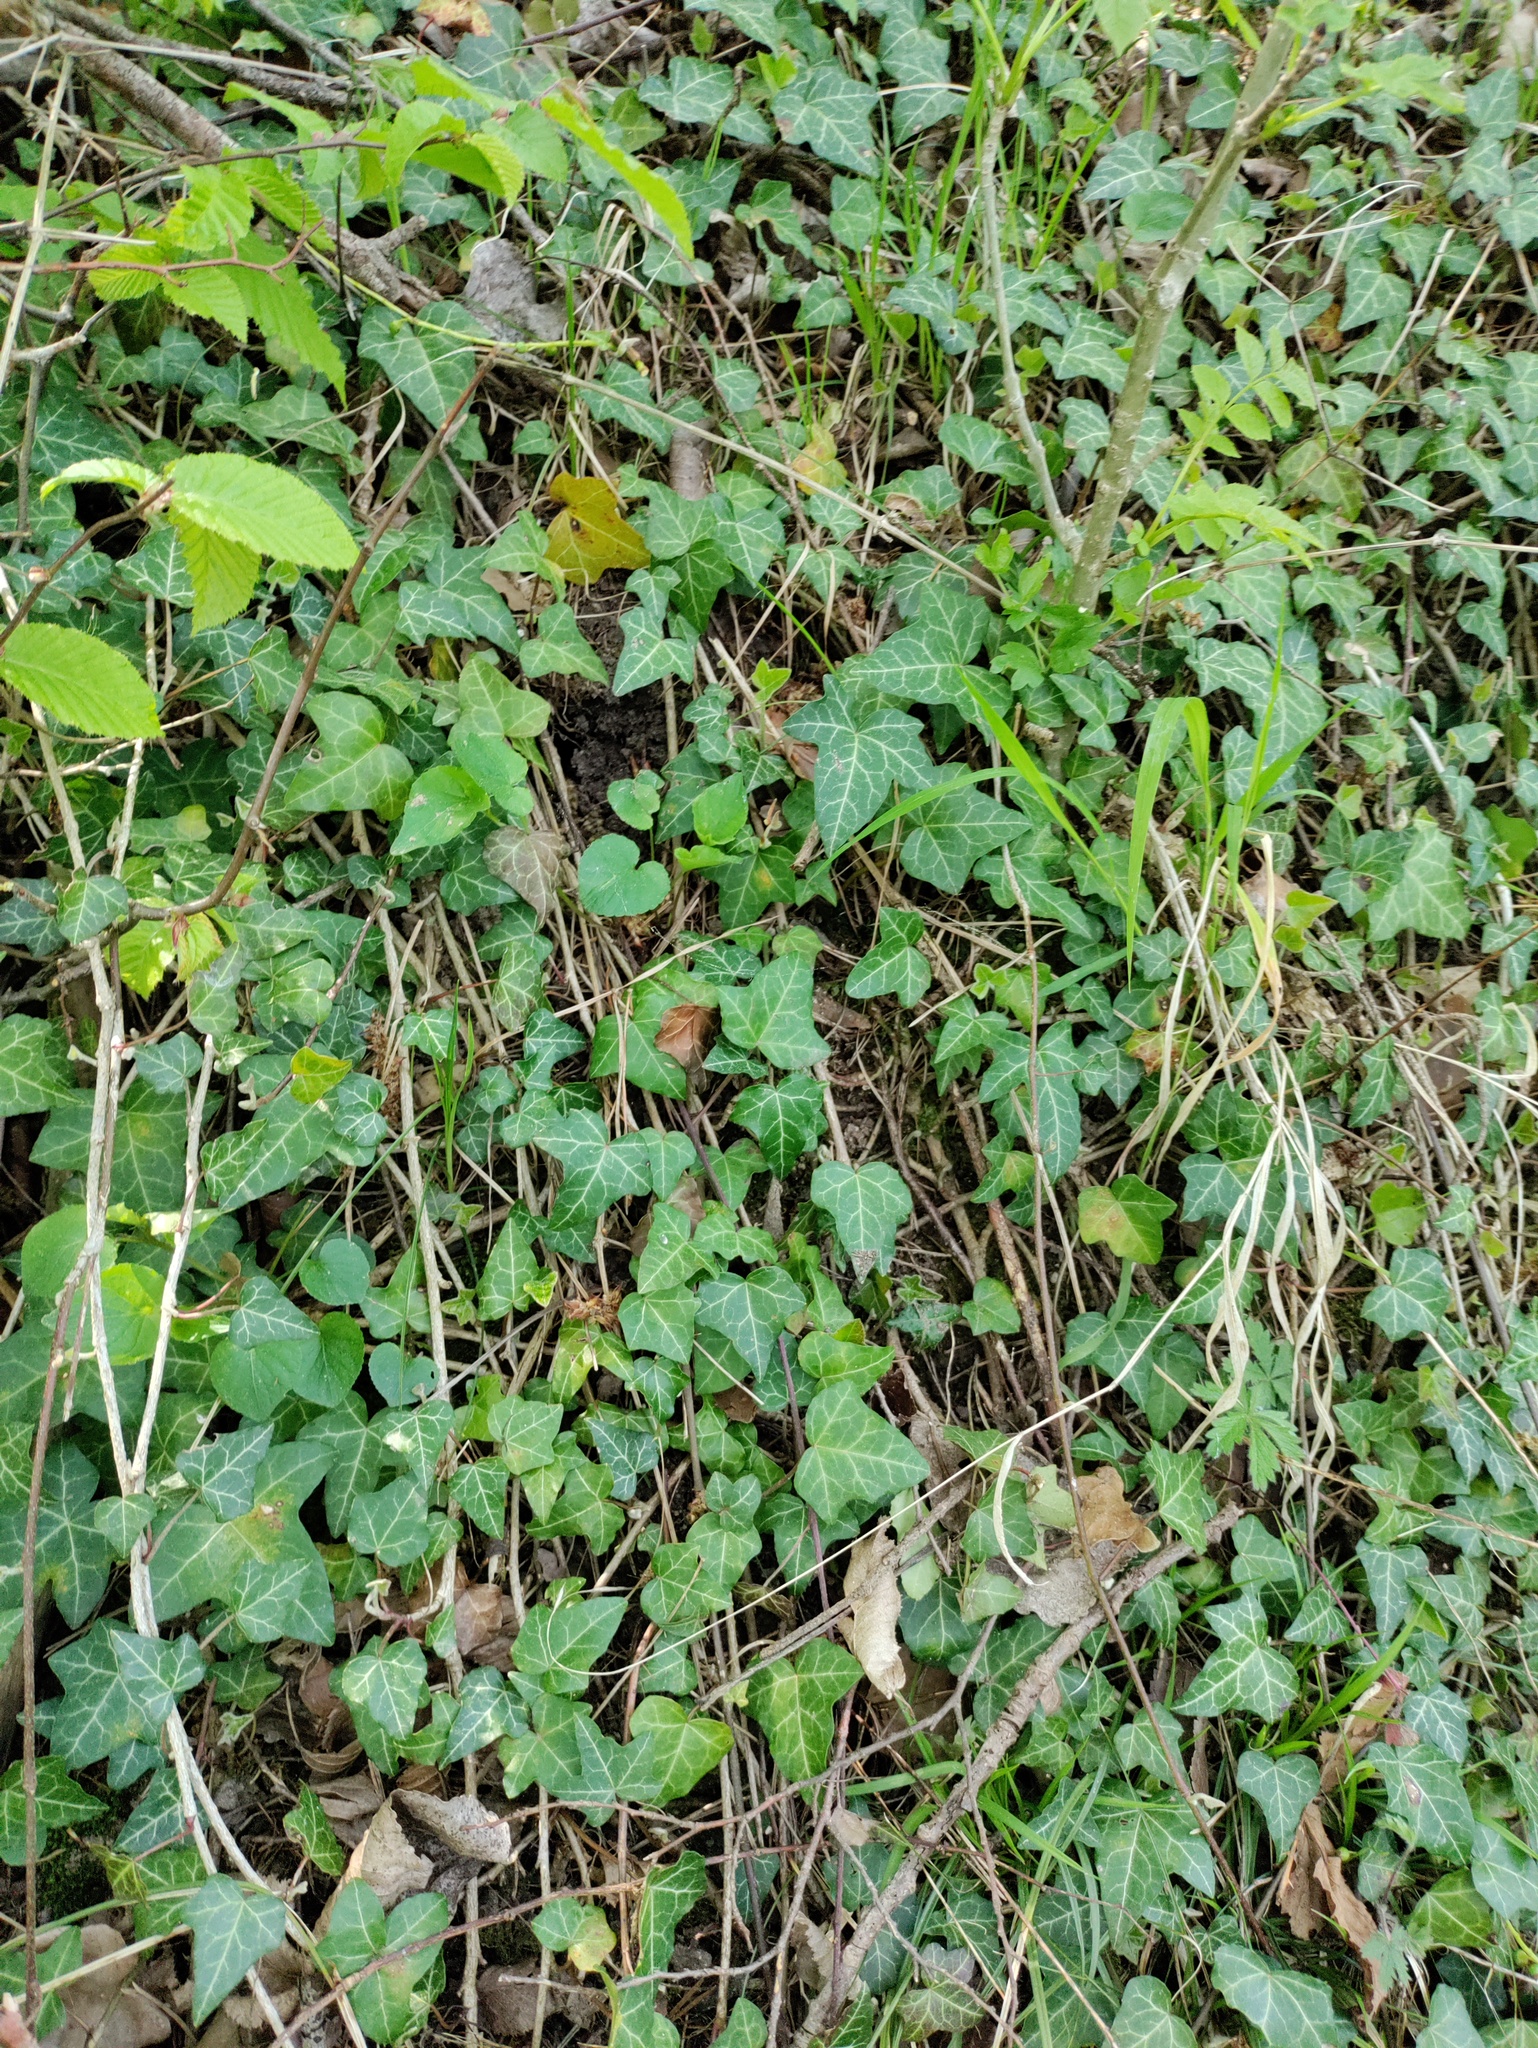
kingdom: Plantae
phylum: Tracheophyta
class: Magnoliopsida
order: Apiales
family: Araliaceae
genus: Hedera
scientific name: Hedera helix
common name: Ivy
